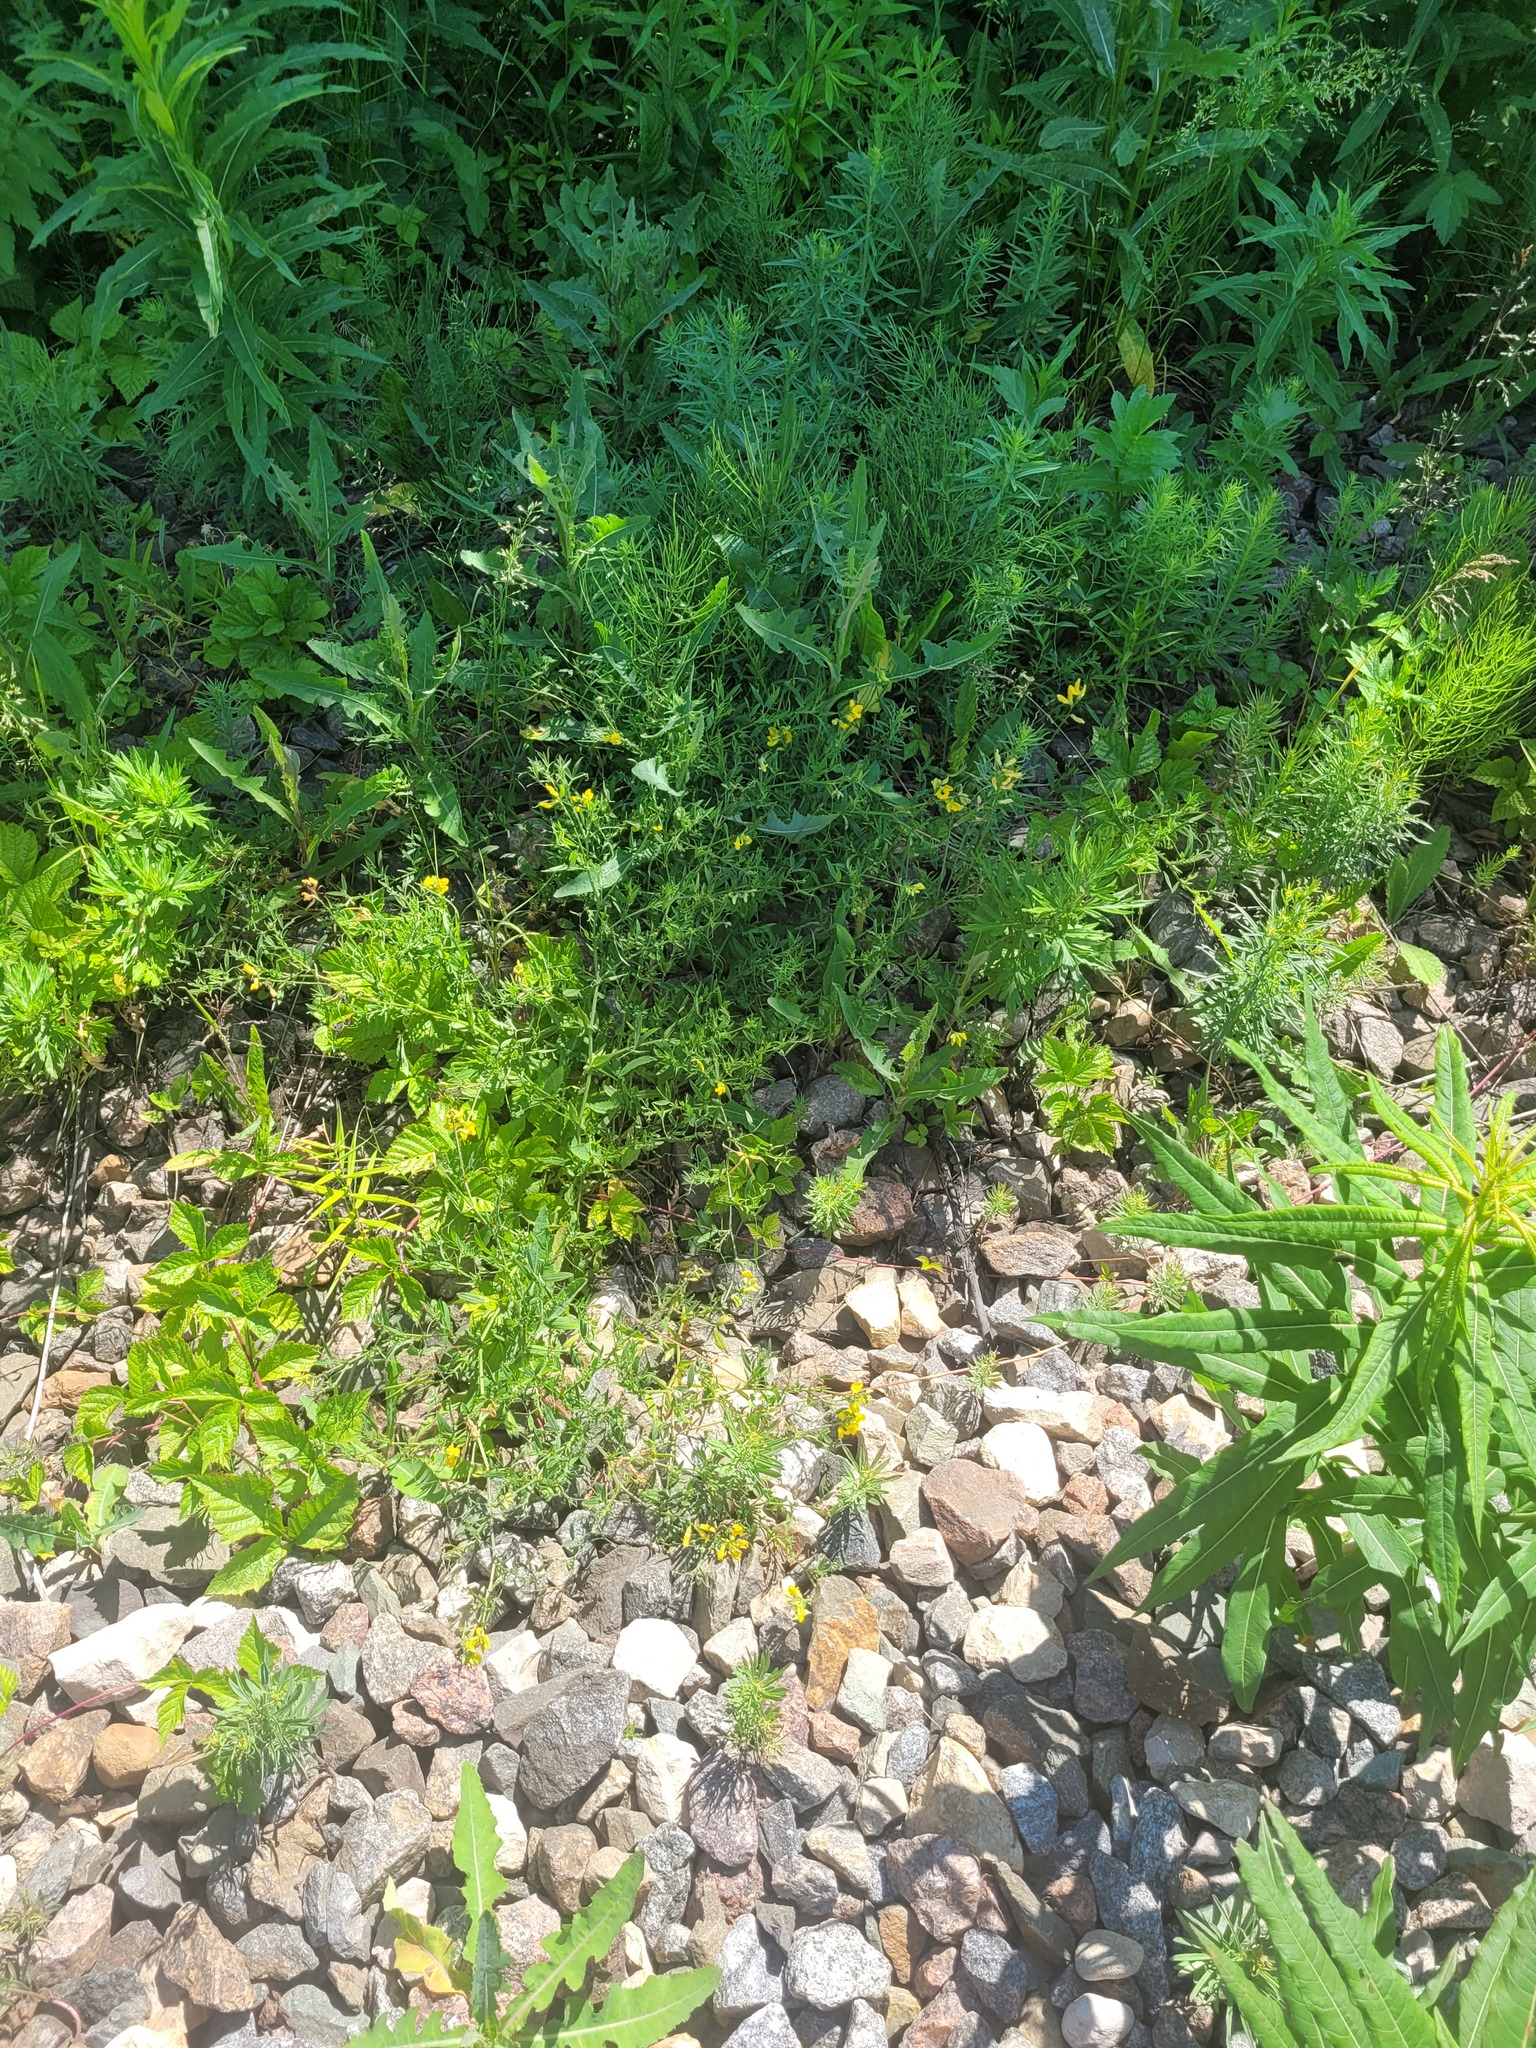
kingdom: Plantae
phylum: Tracheophyta
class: Magnoliopsida
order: Fabales
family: Fabaceae
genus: Lathyrus
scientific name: Lathyrus pratensis
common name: Meadow vetchling
